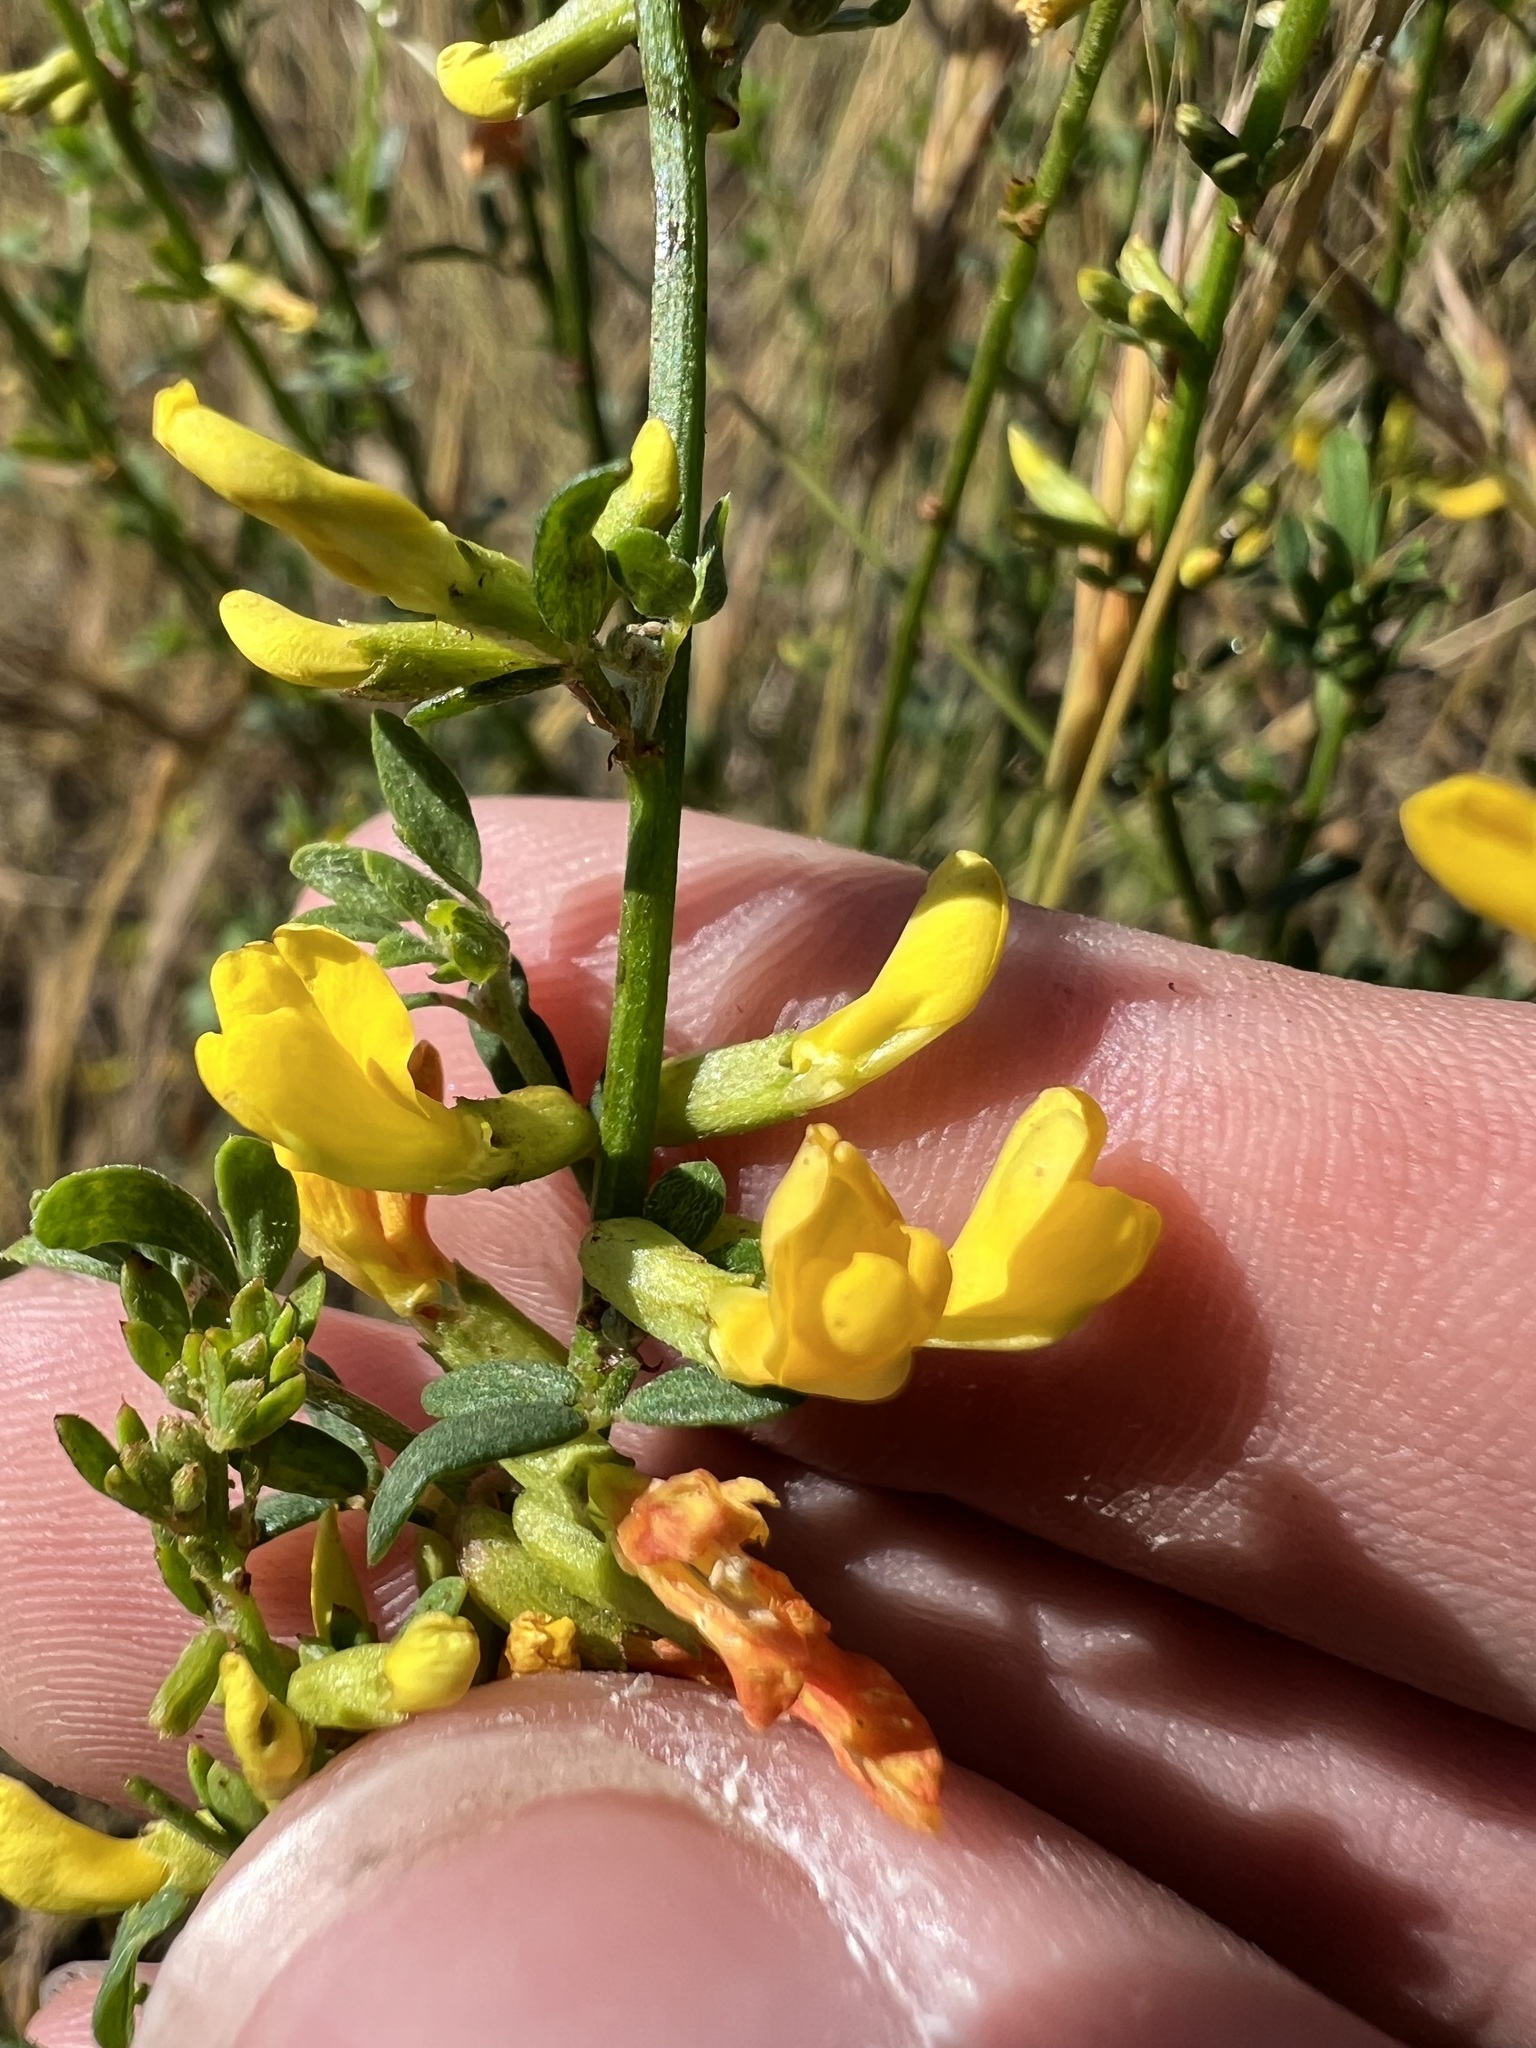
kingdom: Plantae
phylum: Tracheophyta
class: Magnoliopsida
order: Fabales
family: Fabaceae
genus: Acmispon
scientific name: Acmispon glaber
